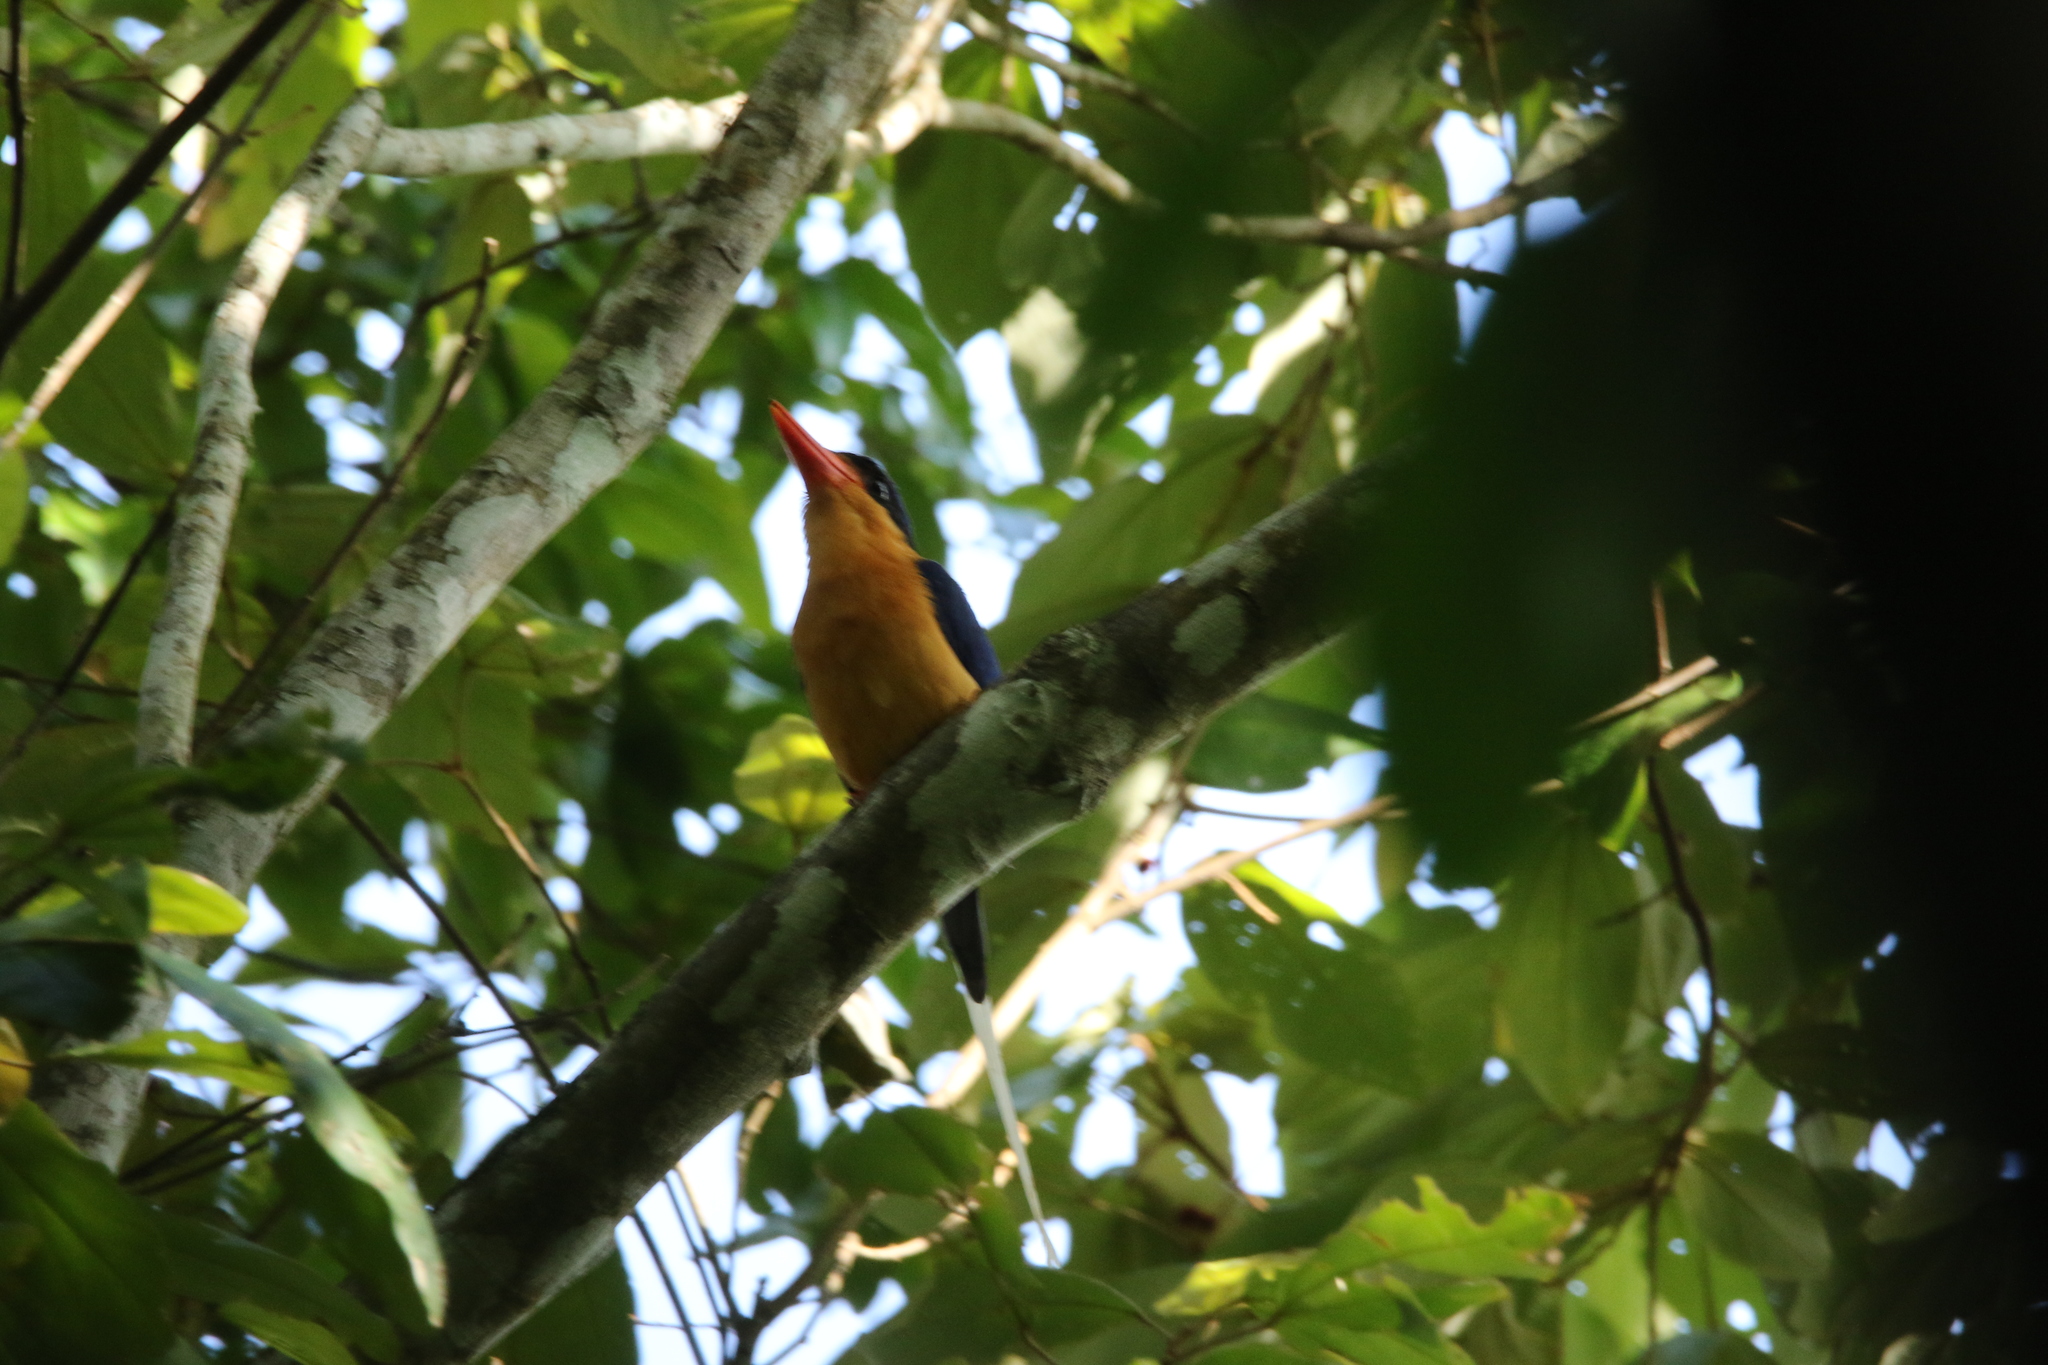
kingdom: Animalia
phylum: Chordata
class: Aves
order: Coraciiformes
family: Alcedinidae
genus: Tanysiptera
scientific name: Tanysiptera sylvia
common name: Buff-breasted paradise kingfisher
